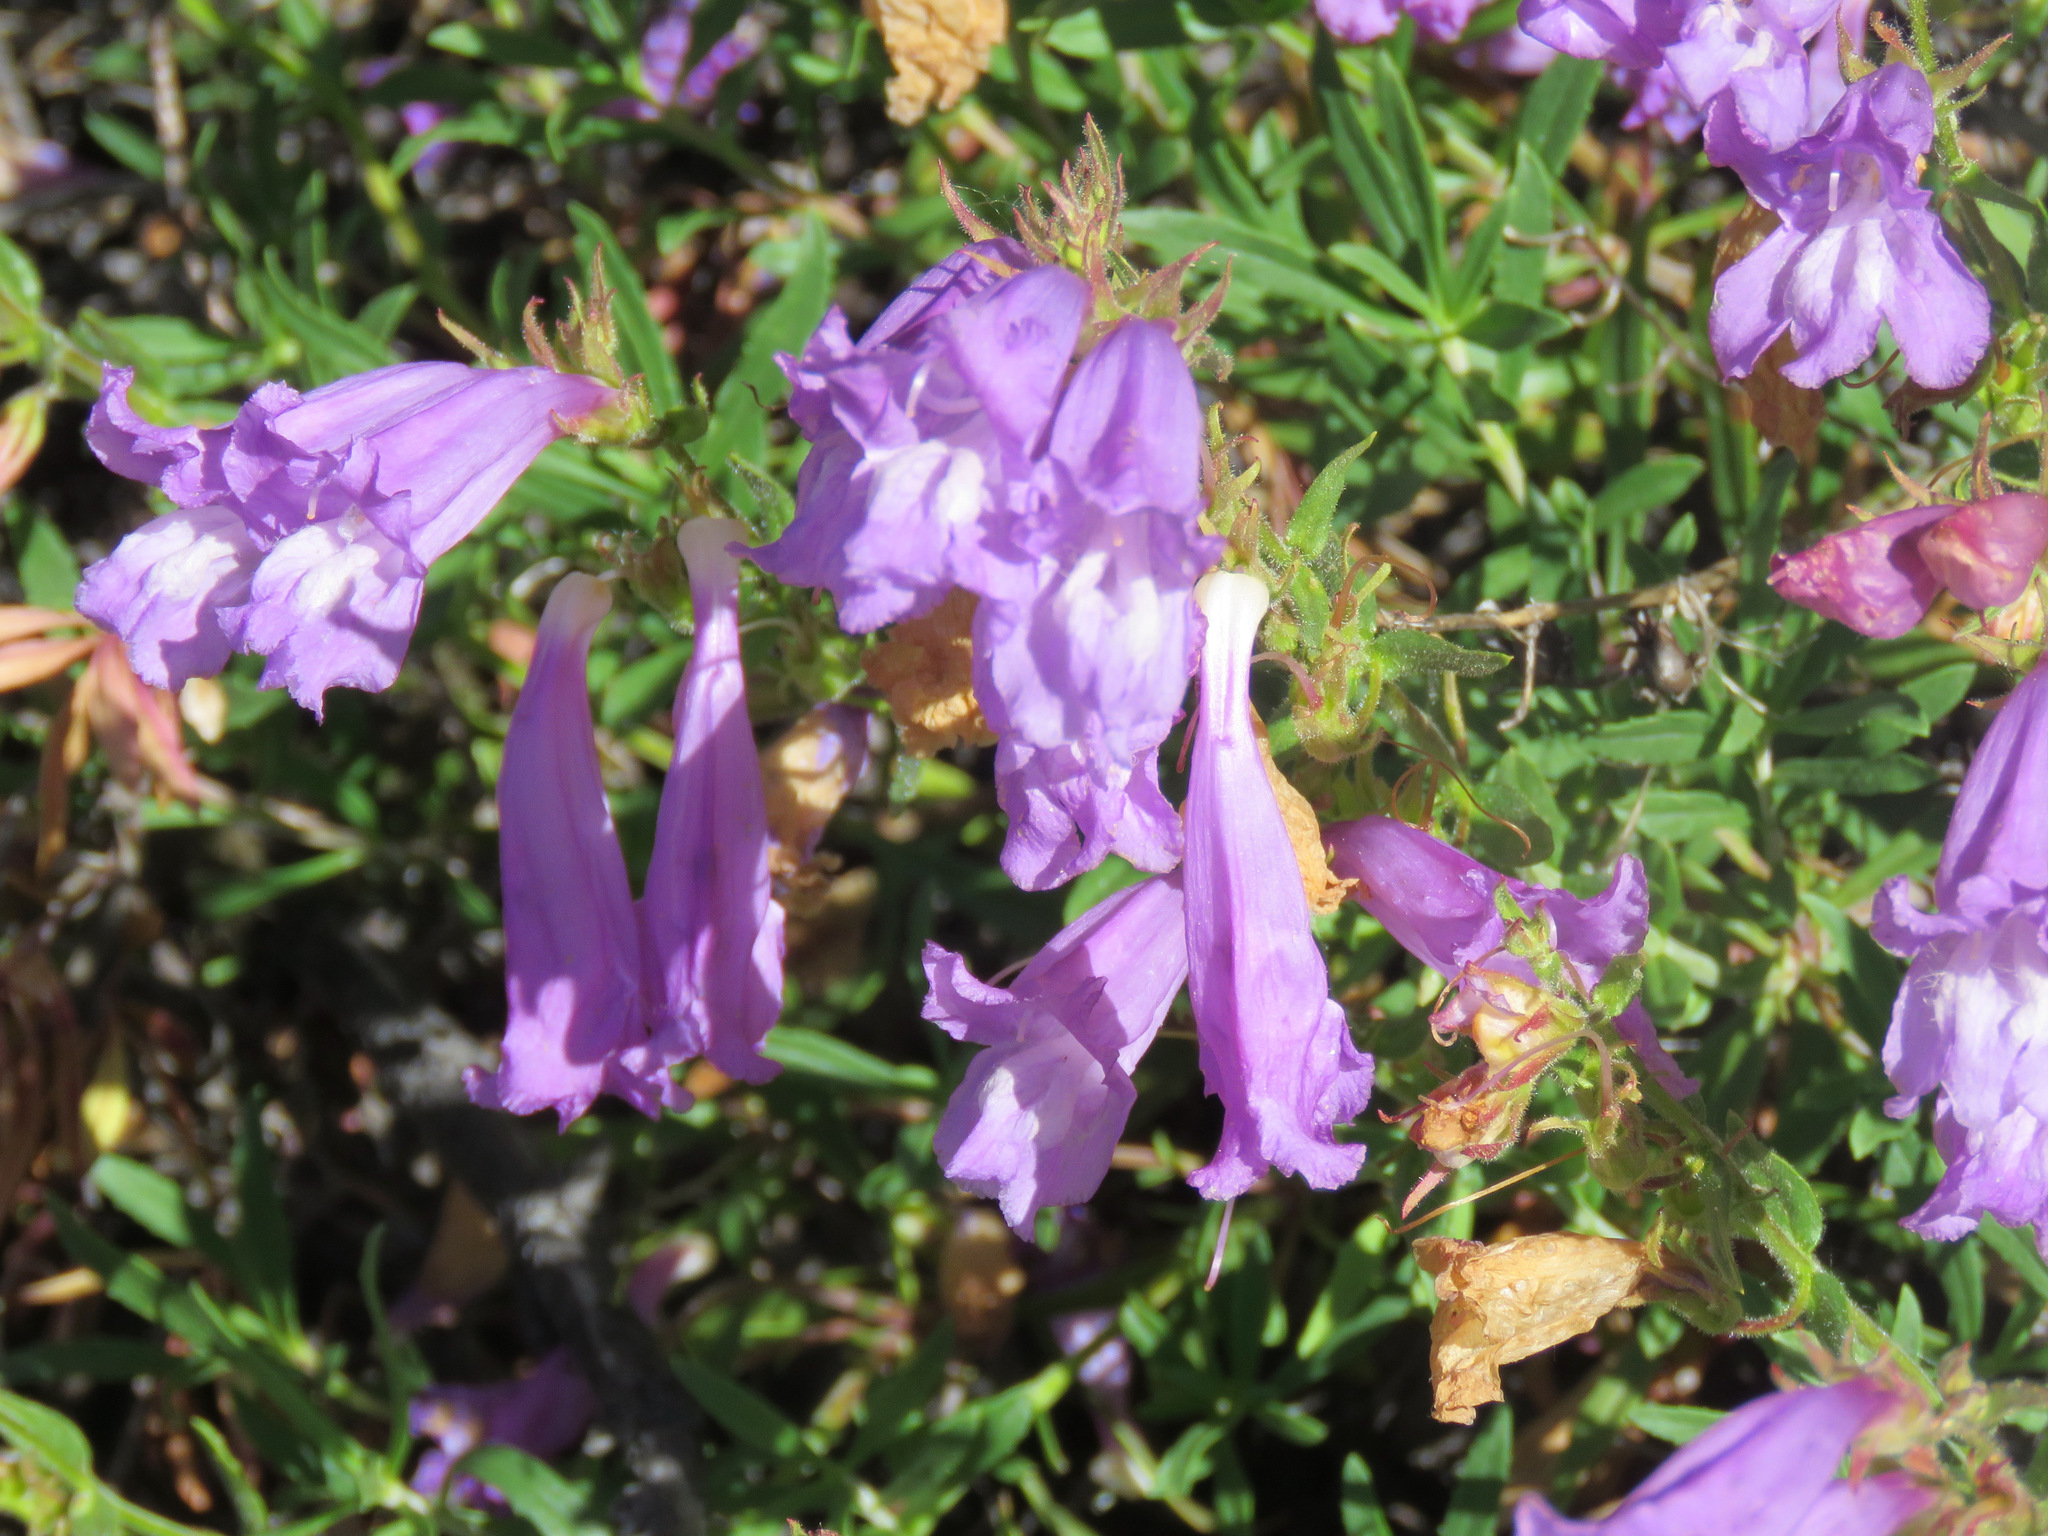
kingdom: Plantae
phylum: Tracheophyta
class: Magnoliopsida
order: Lamiales
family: Plantaginaceae
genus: Penstemon
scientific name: Penstemon fruticosus
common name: Bush penstemon
